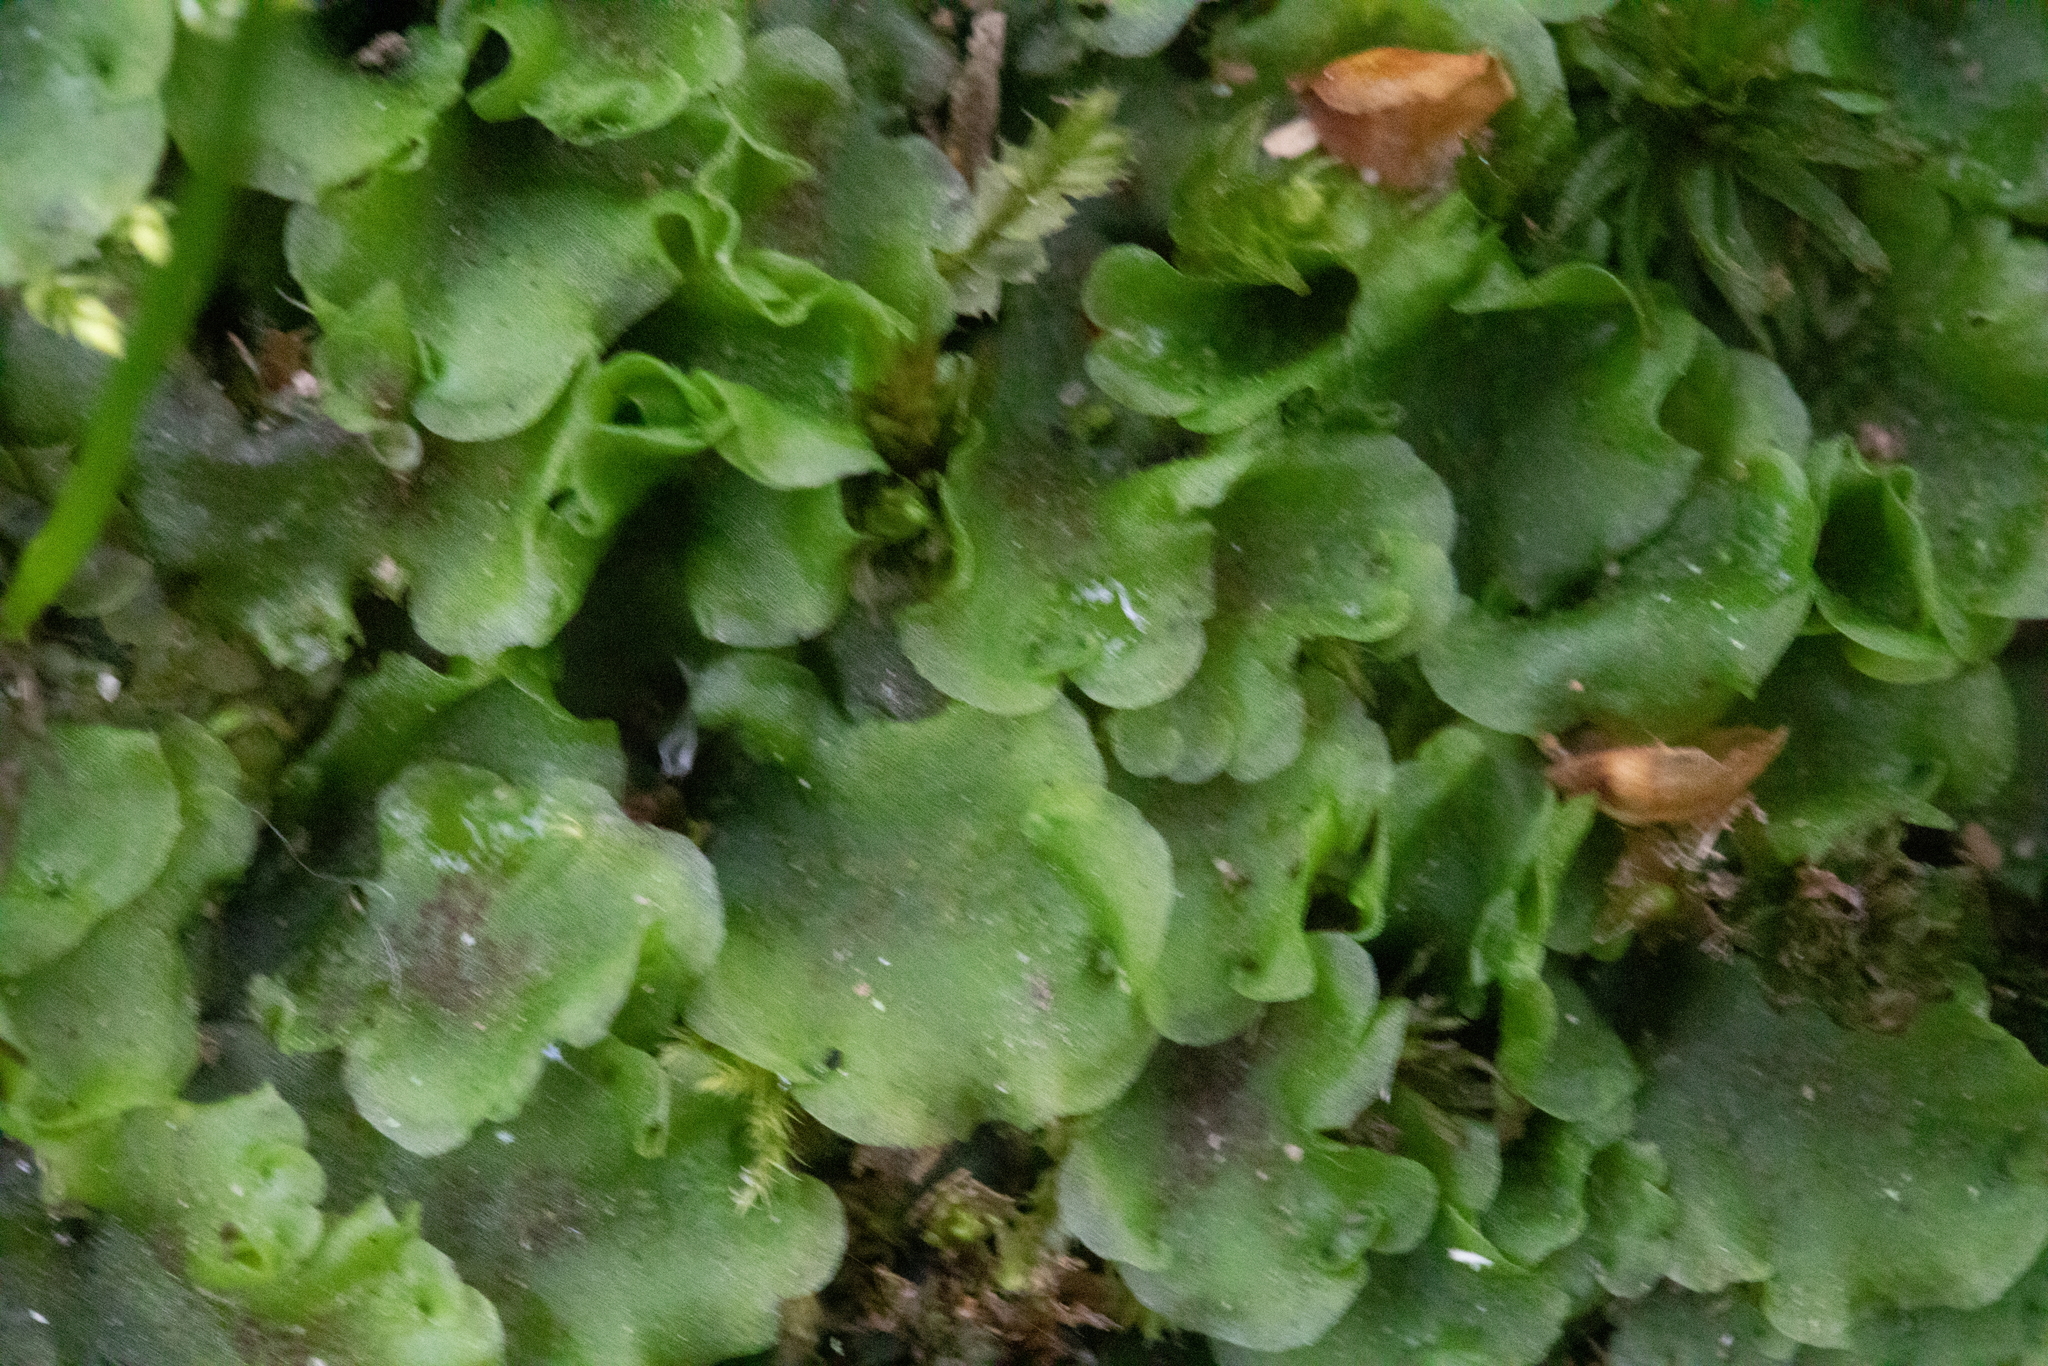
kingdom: Plantae
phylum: Marchantiophyta
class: Jungermanniopsida
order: Pelliales
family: Pelliaceae
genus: Pellia
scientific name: Pellia neesiana
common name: Nees  pellia
